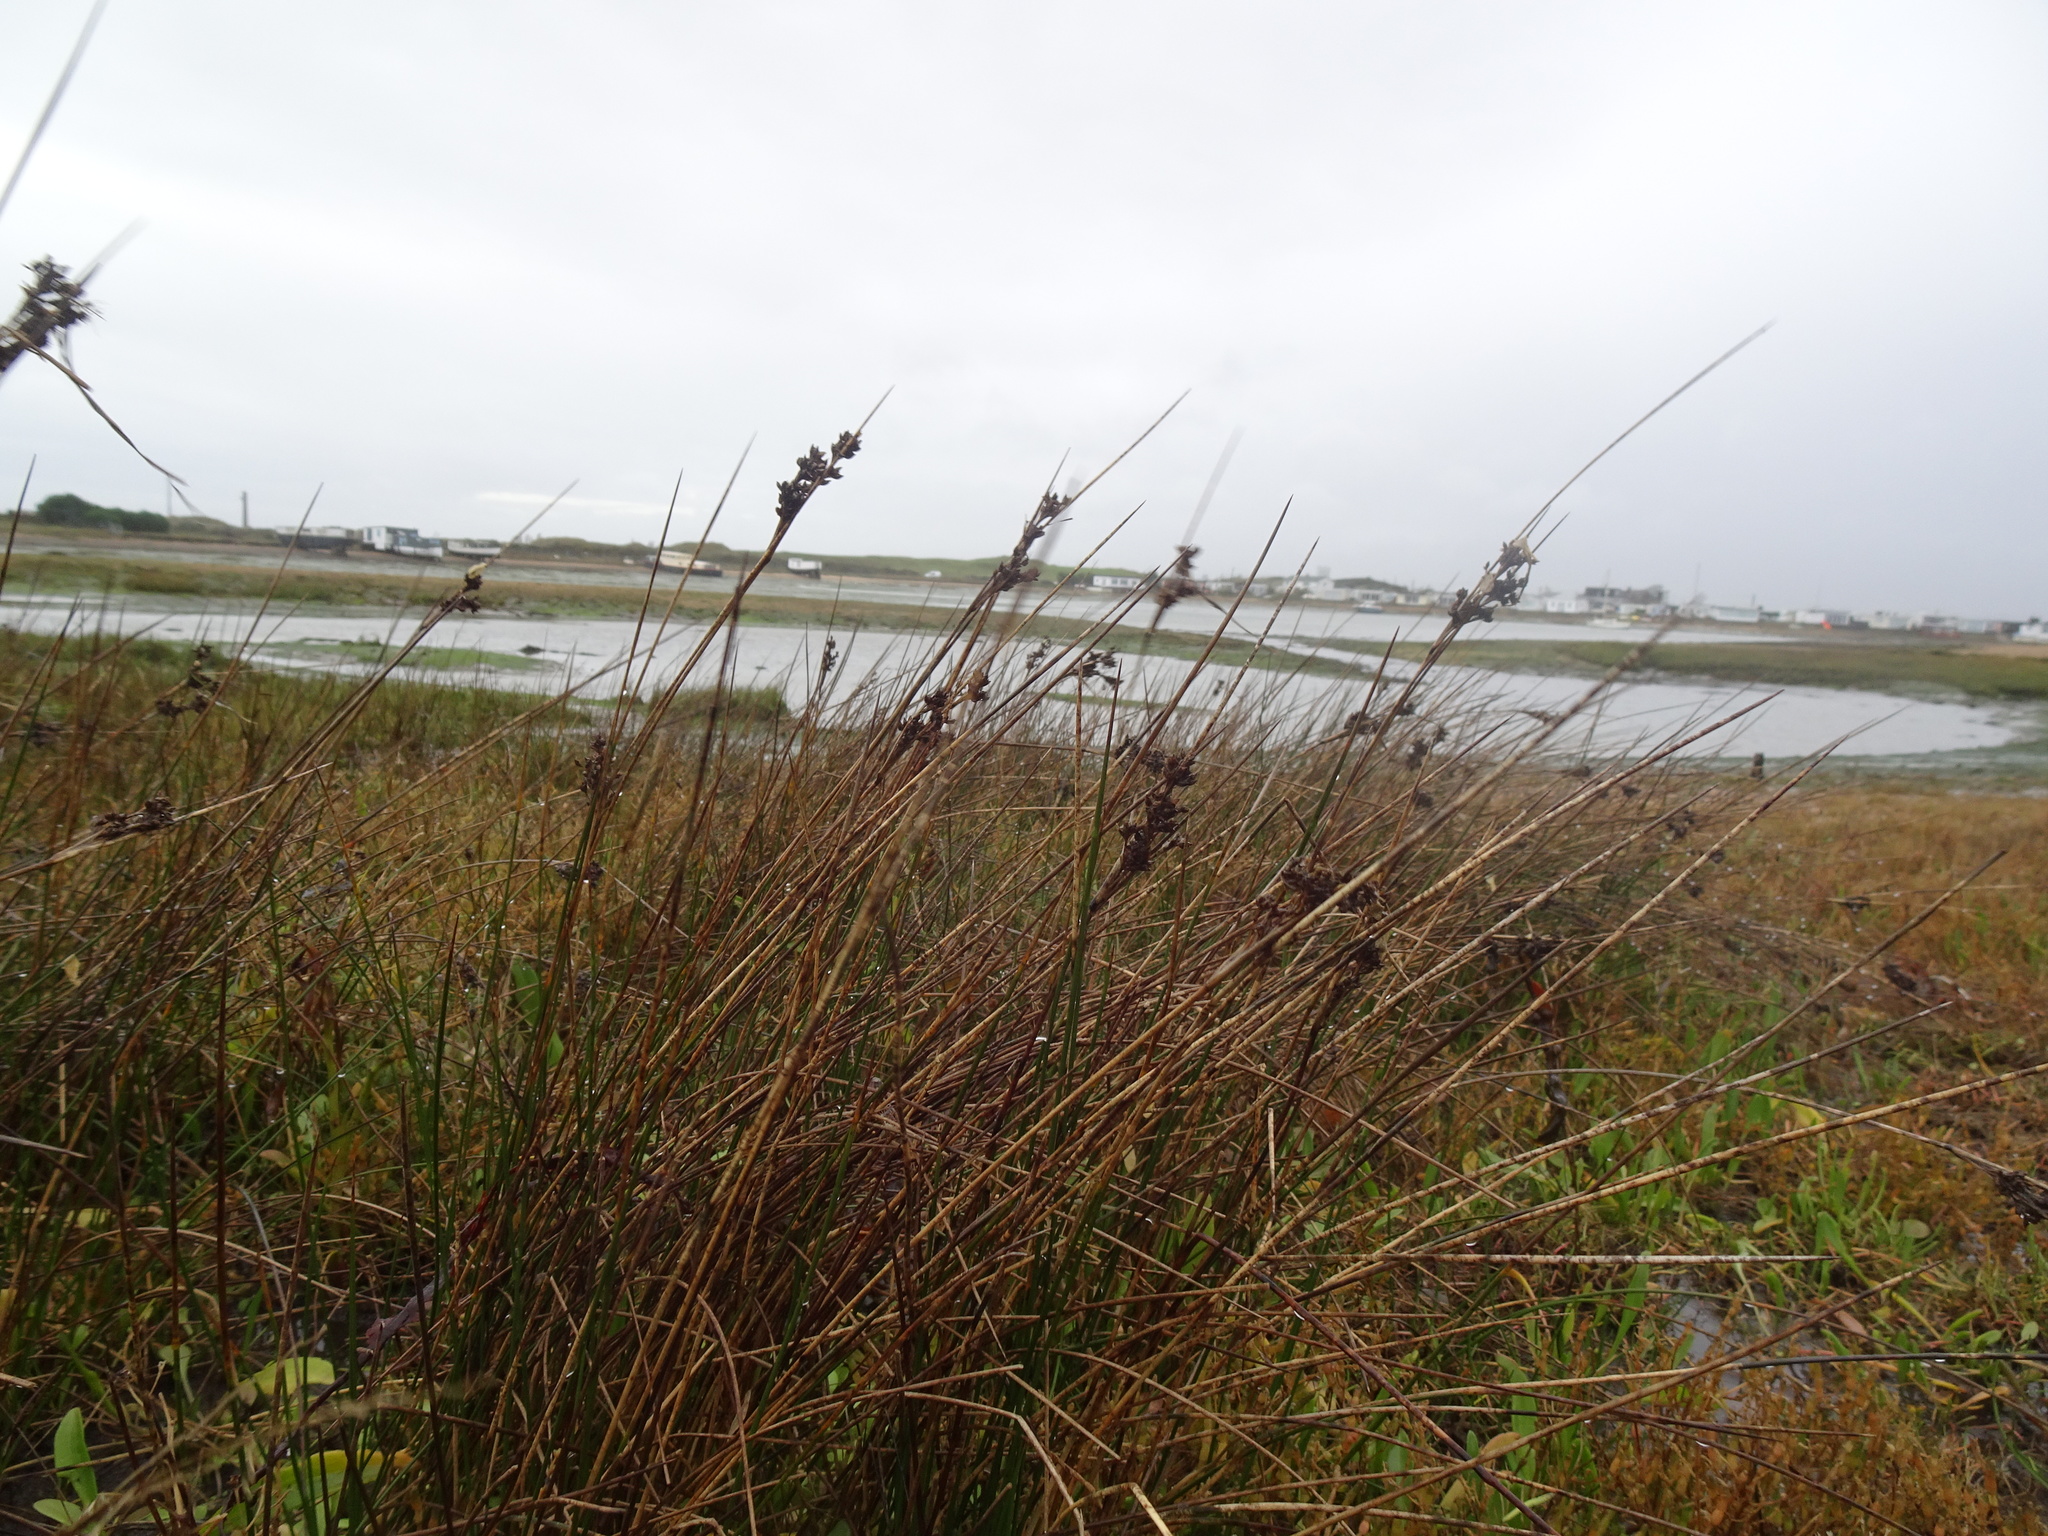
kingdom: Plantae
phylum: Tracheophyta
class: Liliopsida
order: Poales
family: Juncaceae
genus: Juncus
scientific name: Juncus maritimus
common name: Sea rush
